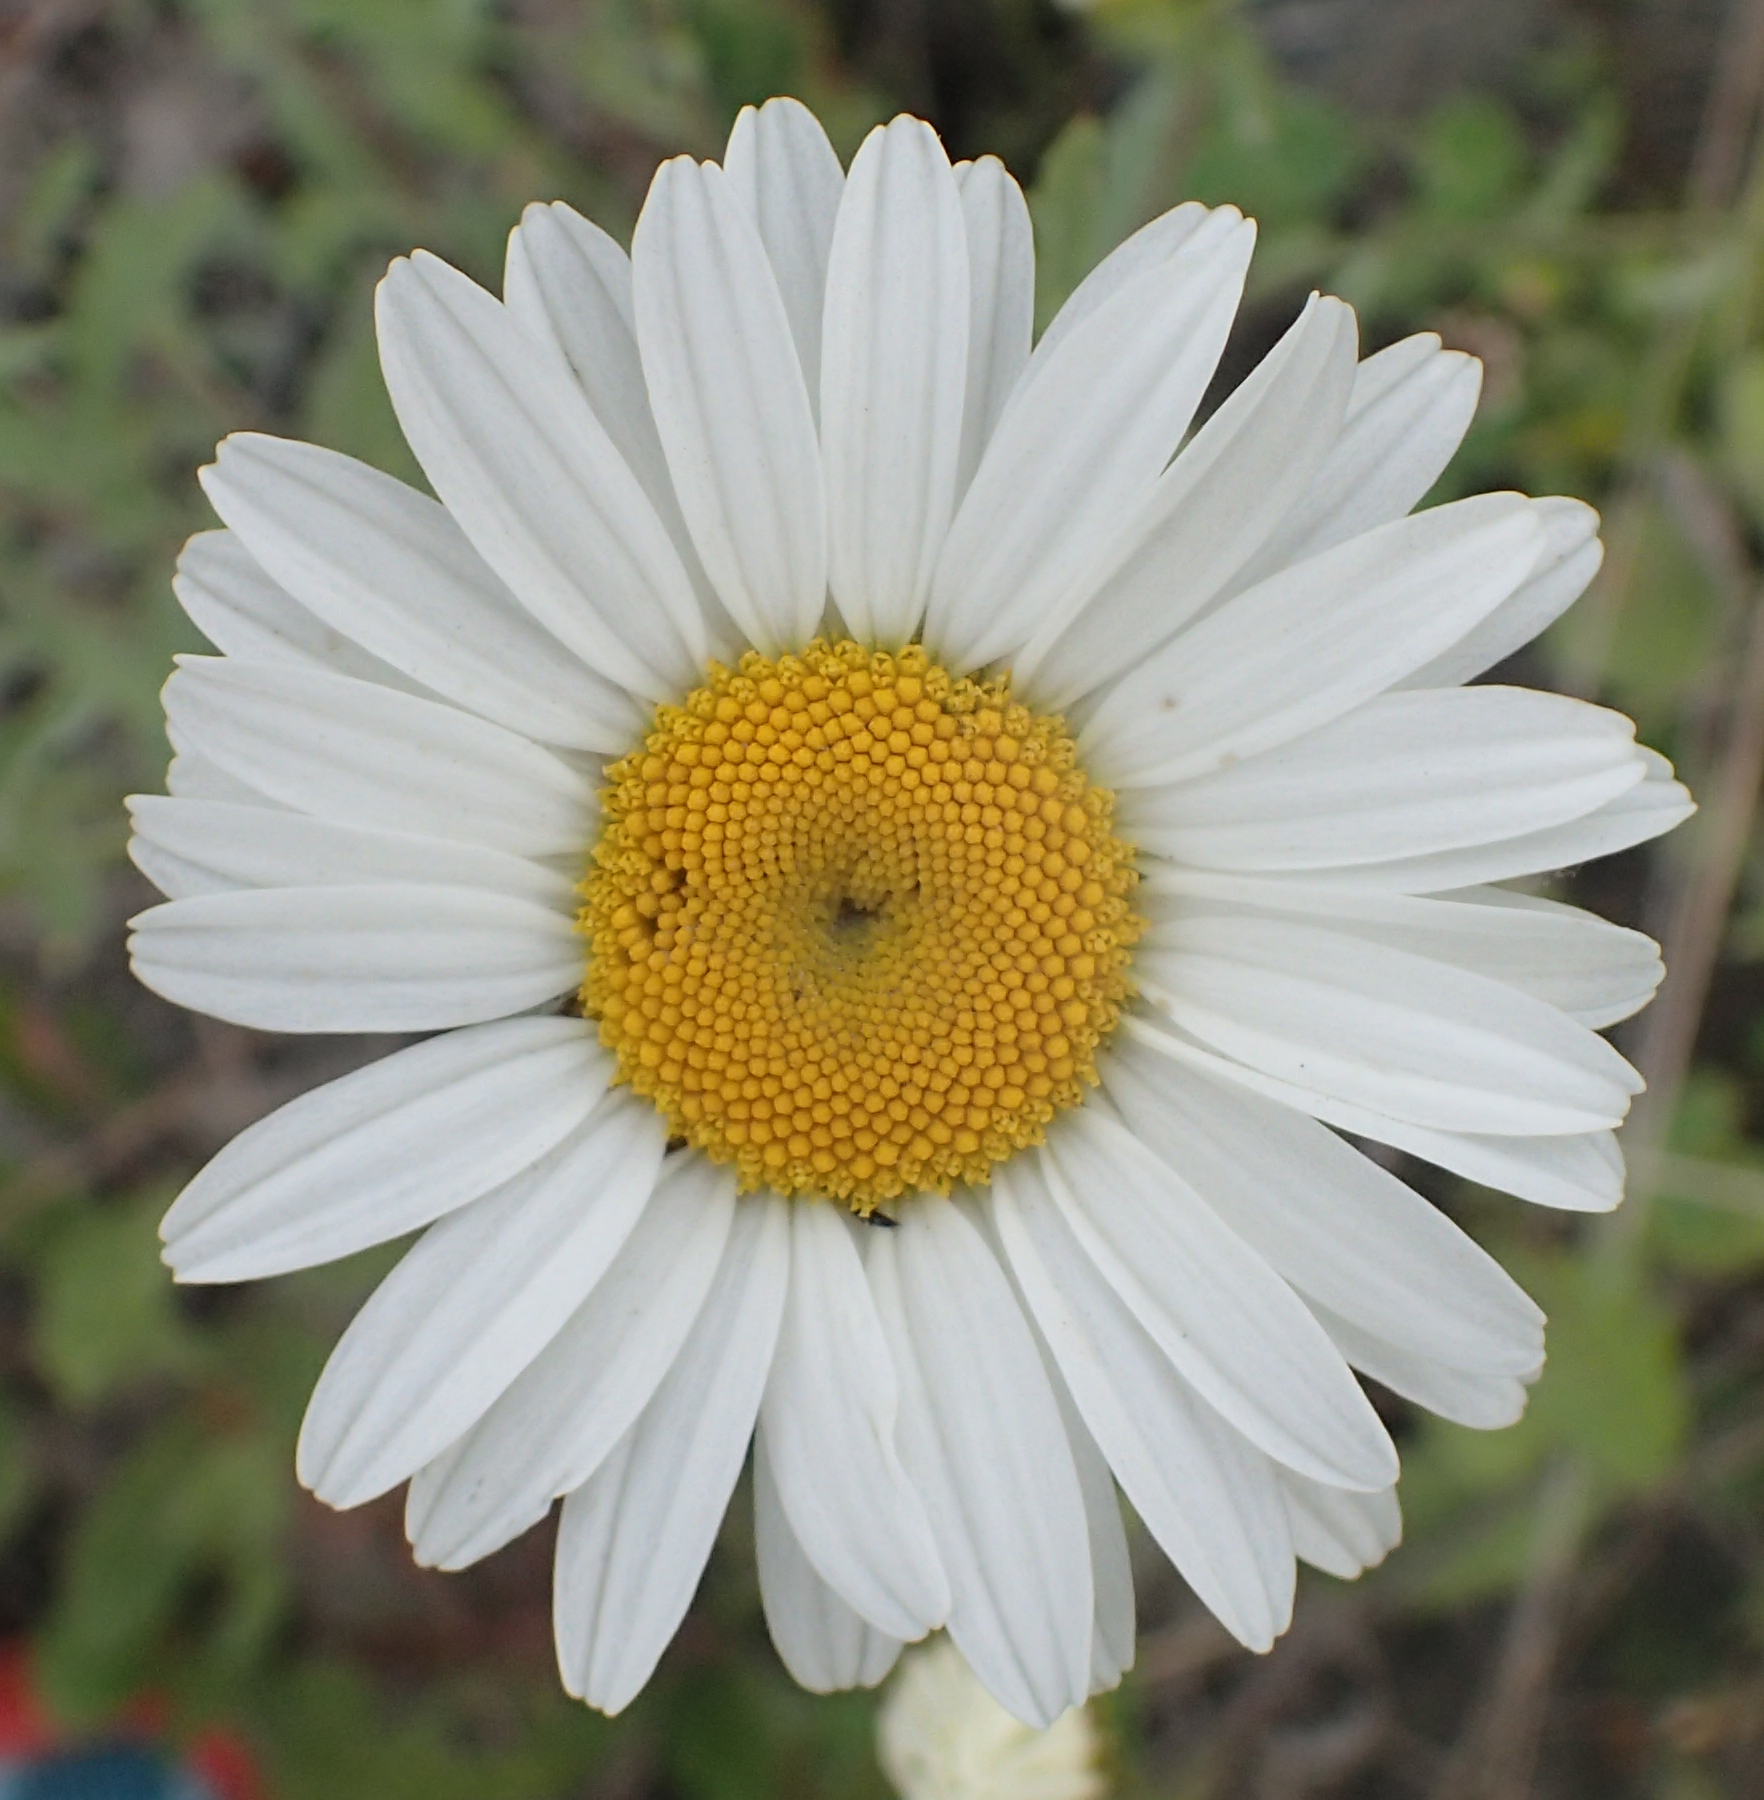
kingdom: Plantae
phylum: Tracheophyta
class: Magnoliopsida
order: Asterales
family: Asteraceae
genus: Leucanthemum
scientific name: Leucanthemum vulgare
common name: Oxeye daisy
